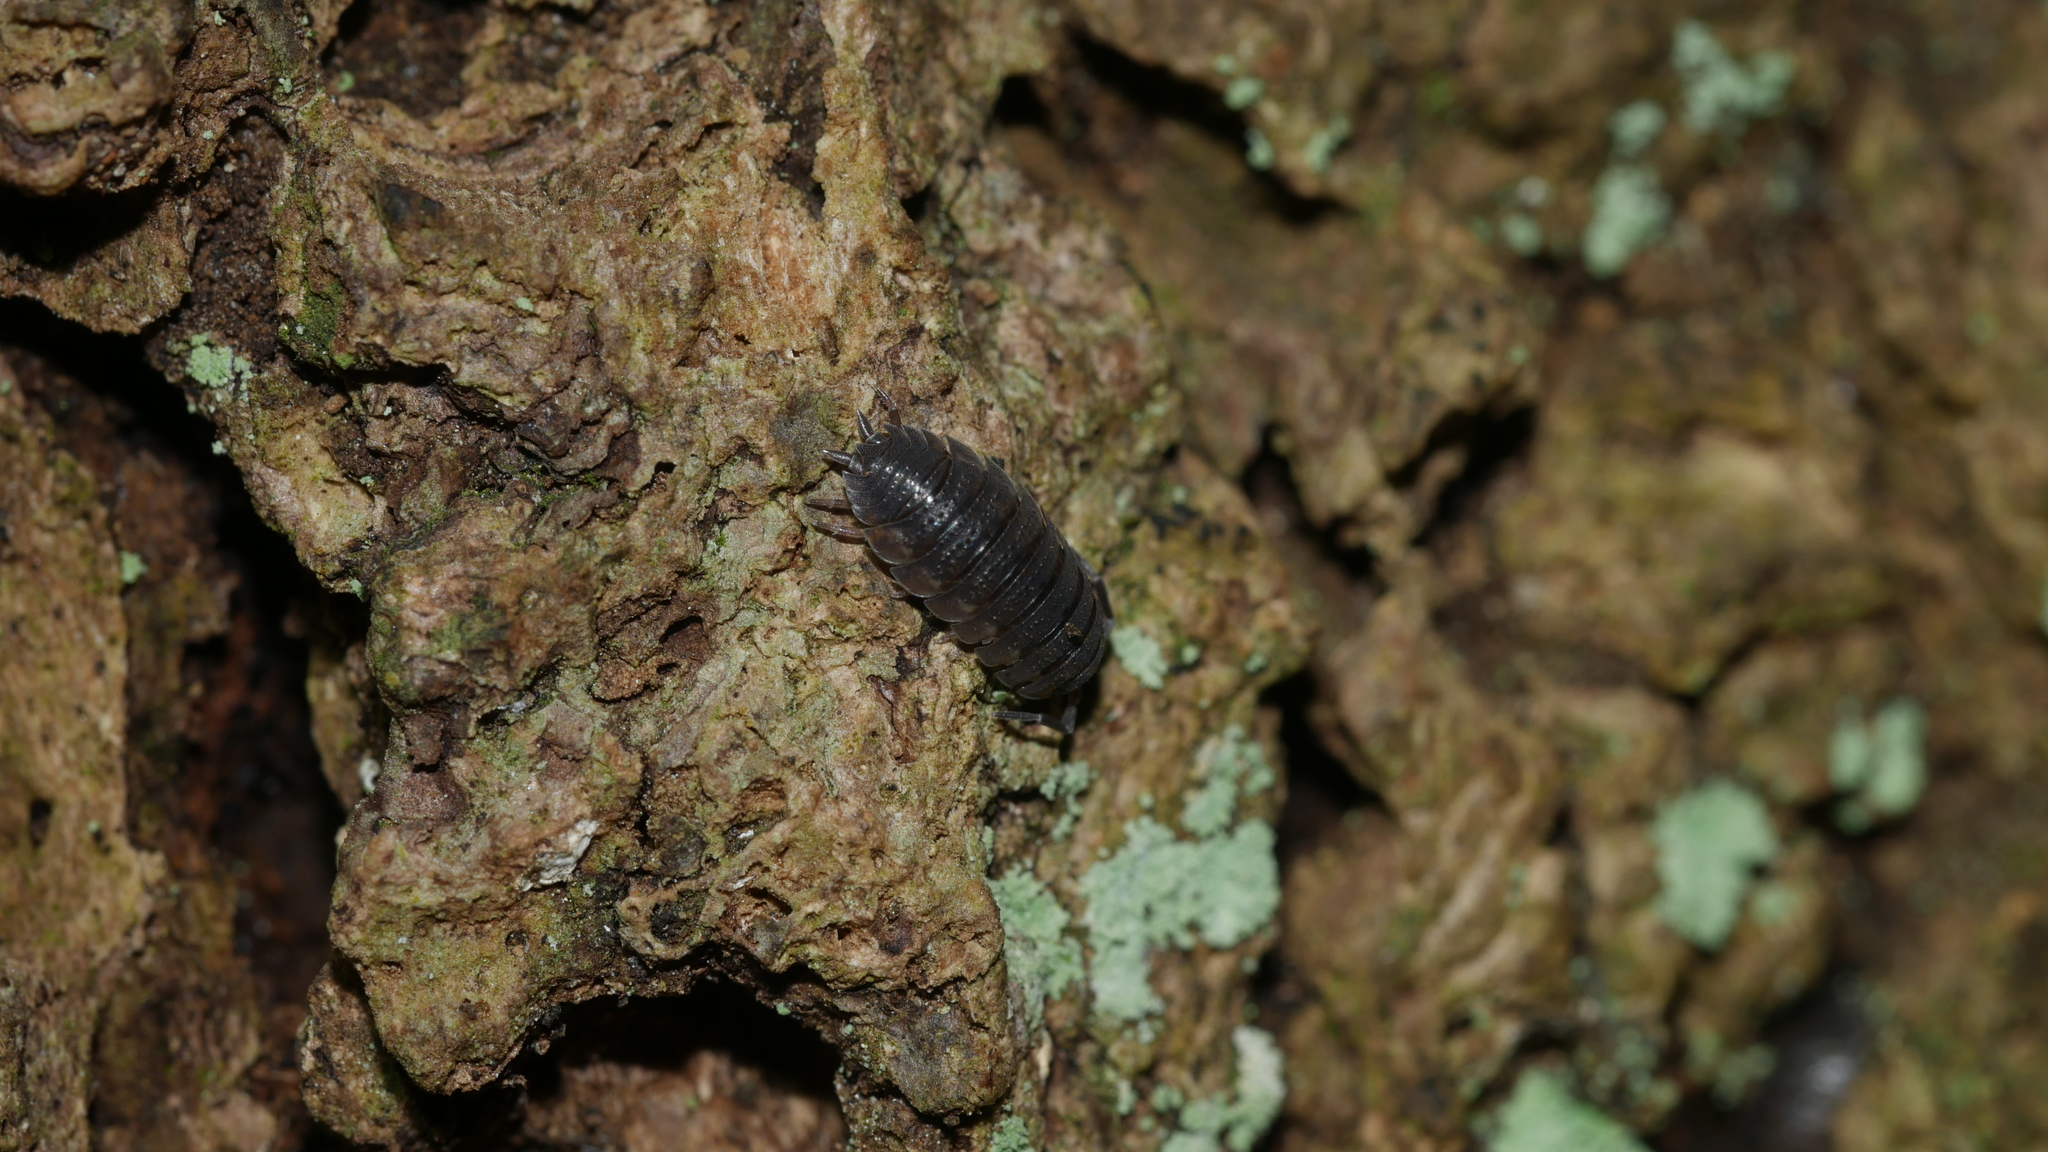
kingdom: Animalia
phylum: Arthropoda
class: Malacostraca
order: Isopoda
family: Porcellionidae
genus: Porcellio
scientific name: Porcellio scaber
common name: Common rough woodlouse
